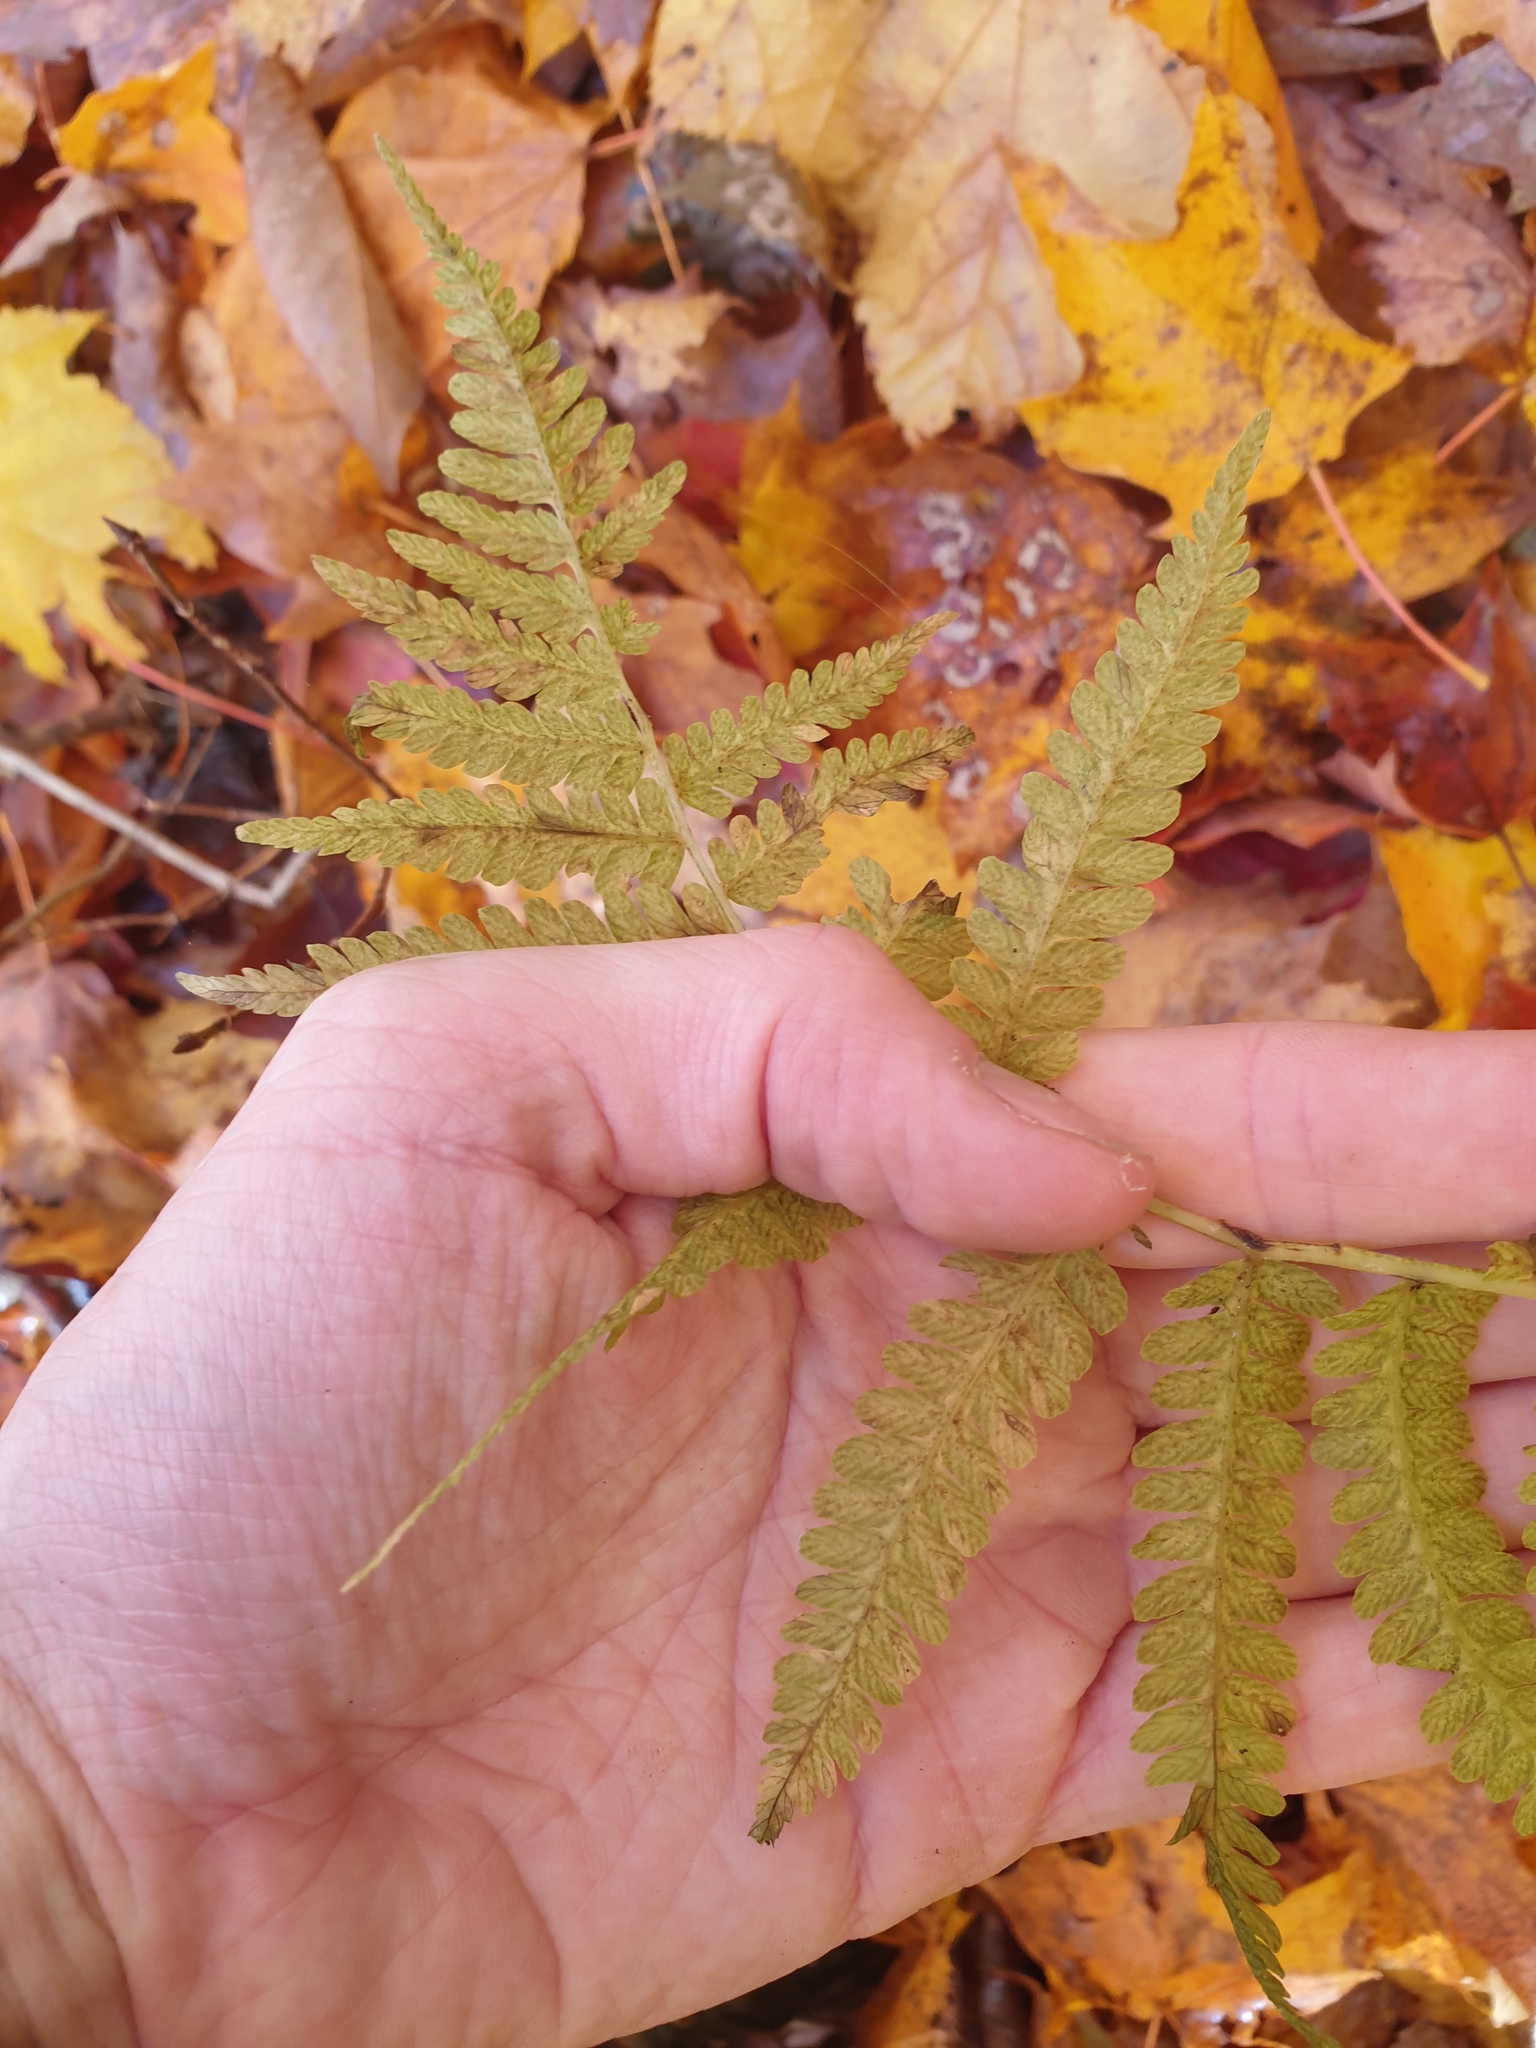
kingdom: Plantae
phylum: Tracheophyta
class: Polypodiopsida
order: Polypodiales
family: Athyriaceae
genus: Deparia
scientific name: Deparia acrostichoides
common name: Silver false spleenwort
